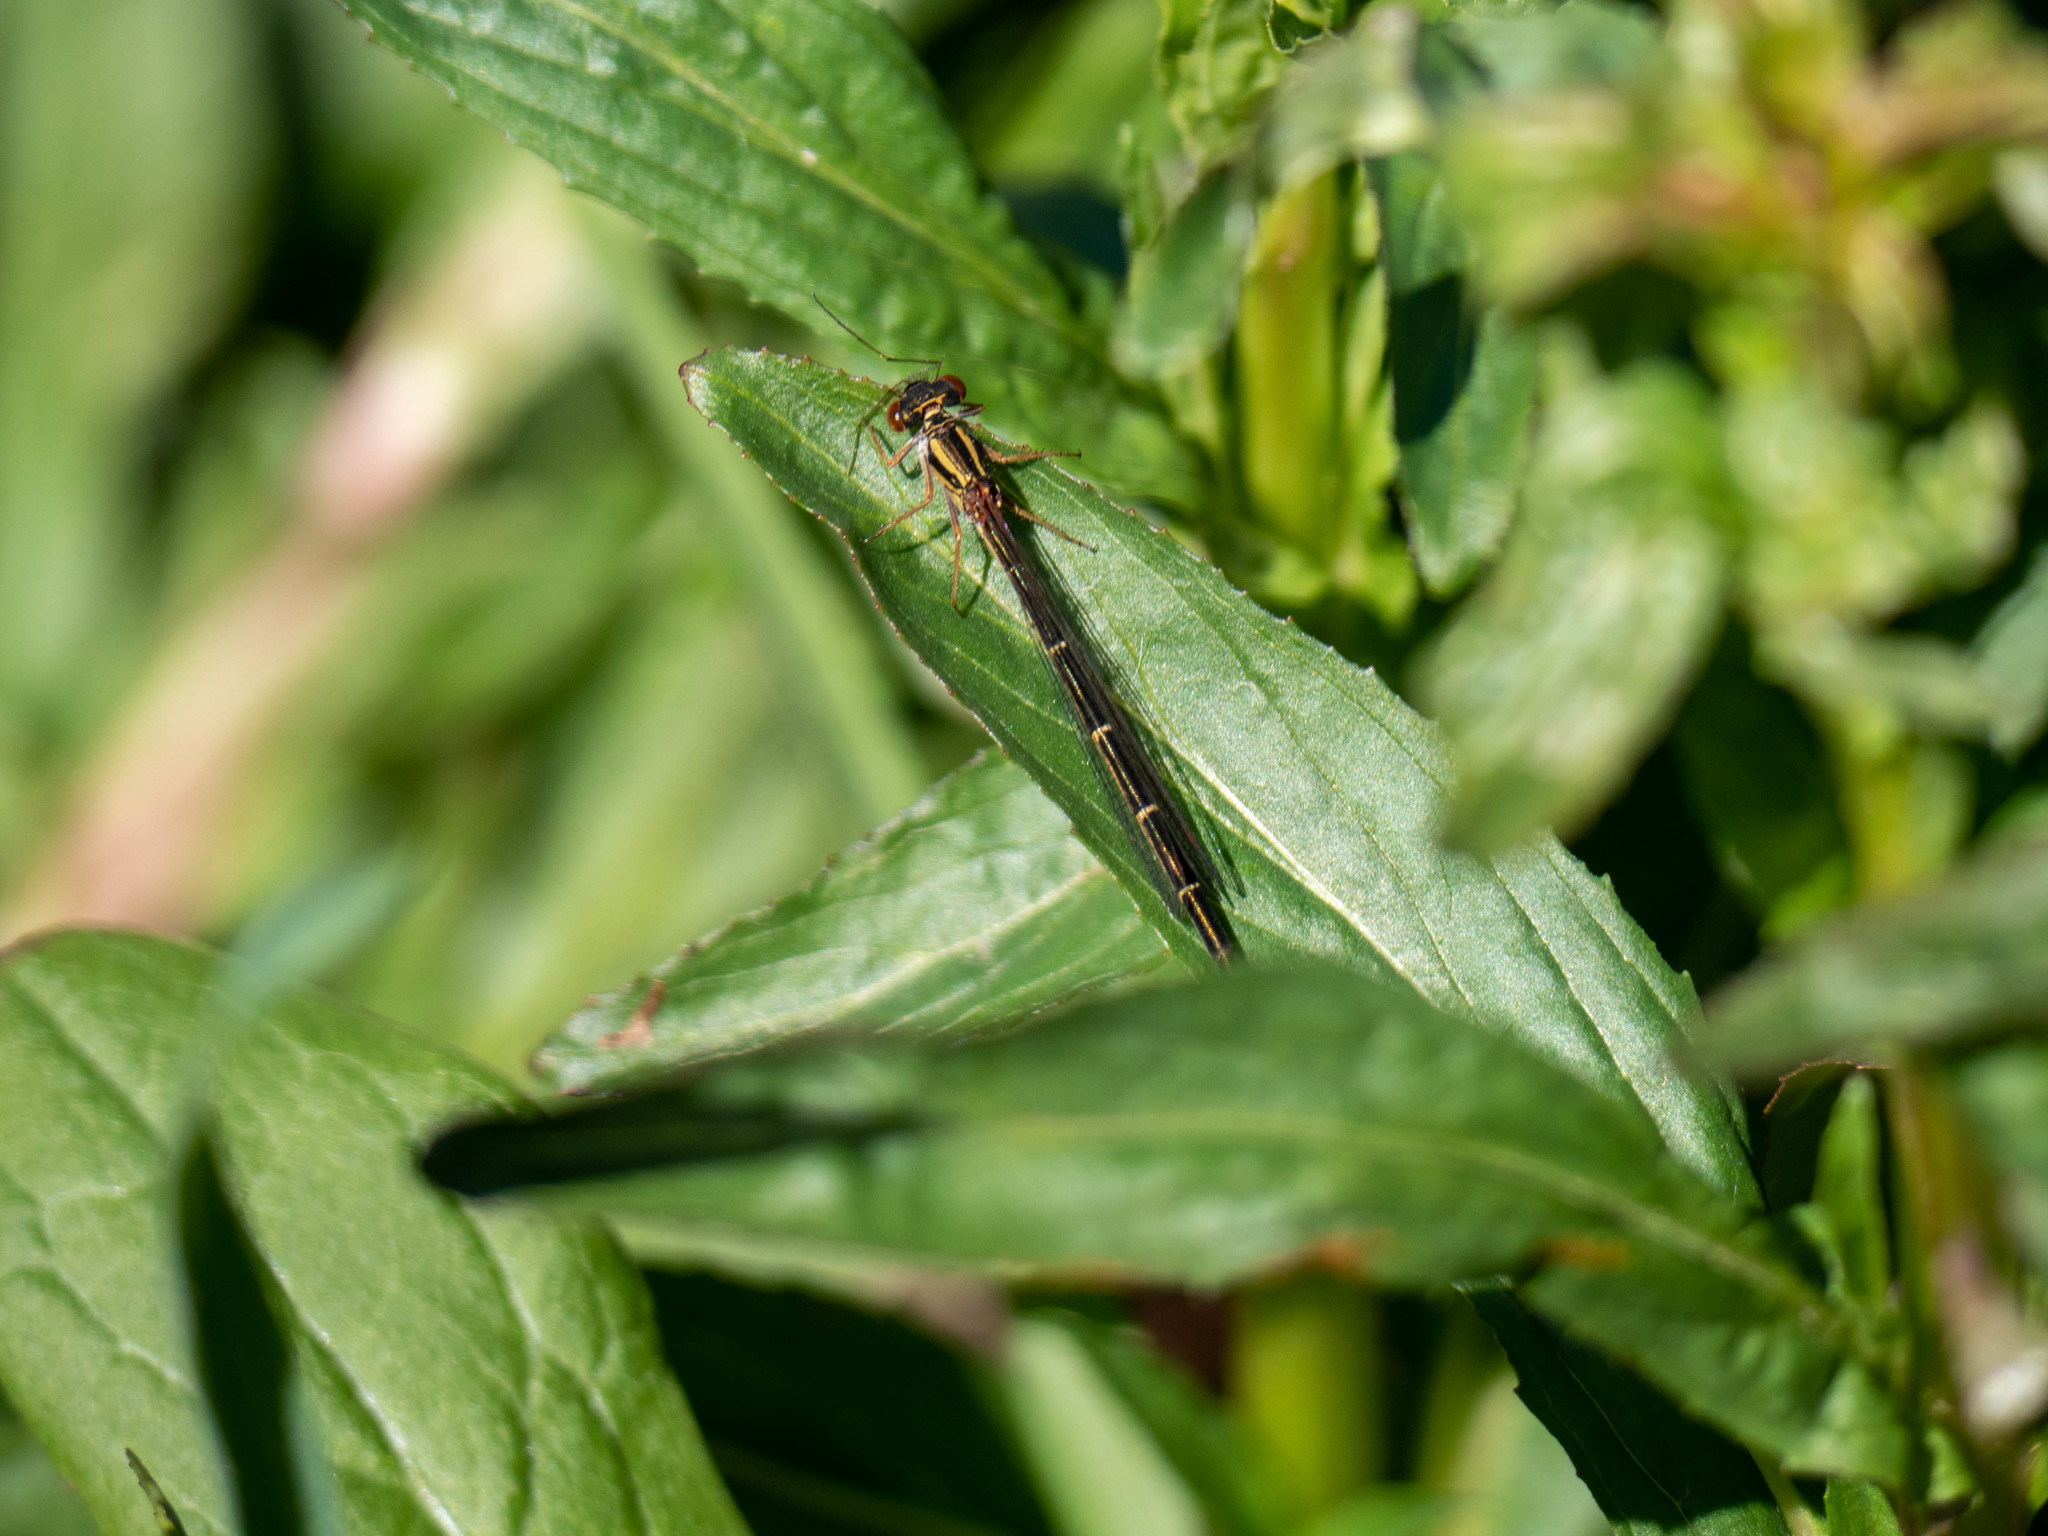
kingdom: Animalia
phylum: Arthropoda
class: Insecta
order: Odonata
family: Coenagrionidae
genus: Xanthocnemis
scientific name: Xanthocnemis zealandica
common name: Common redcoat damselfly
